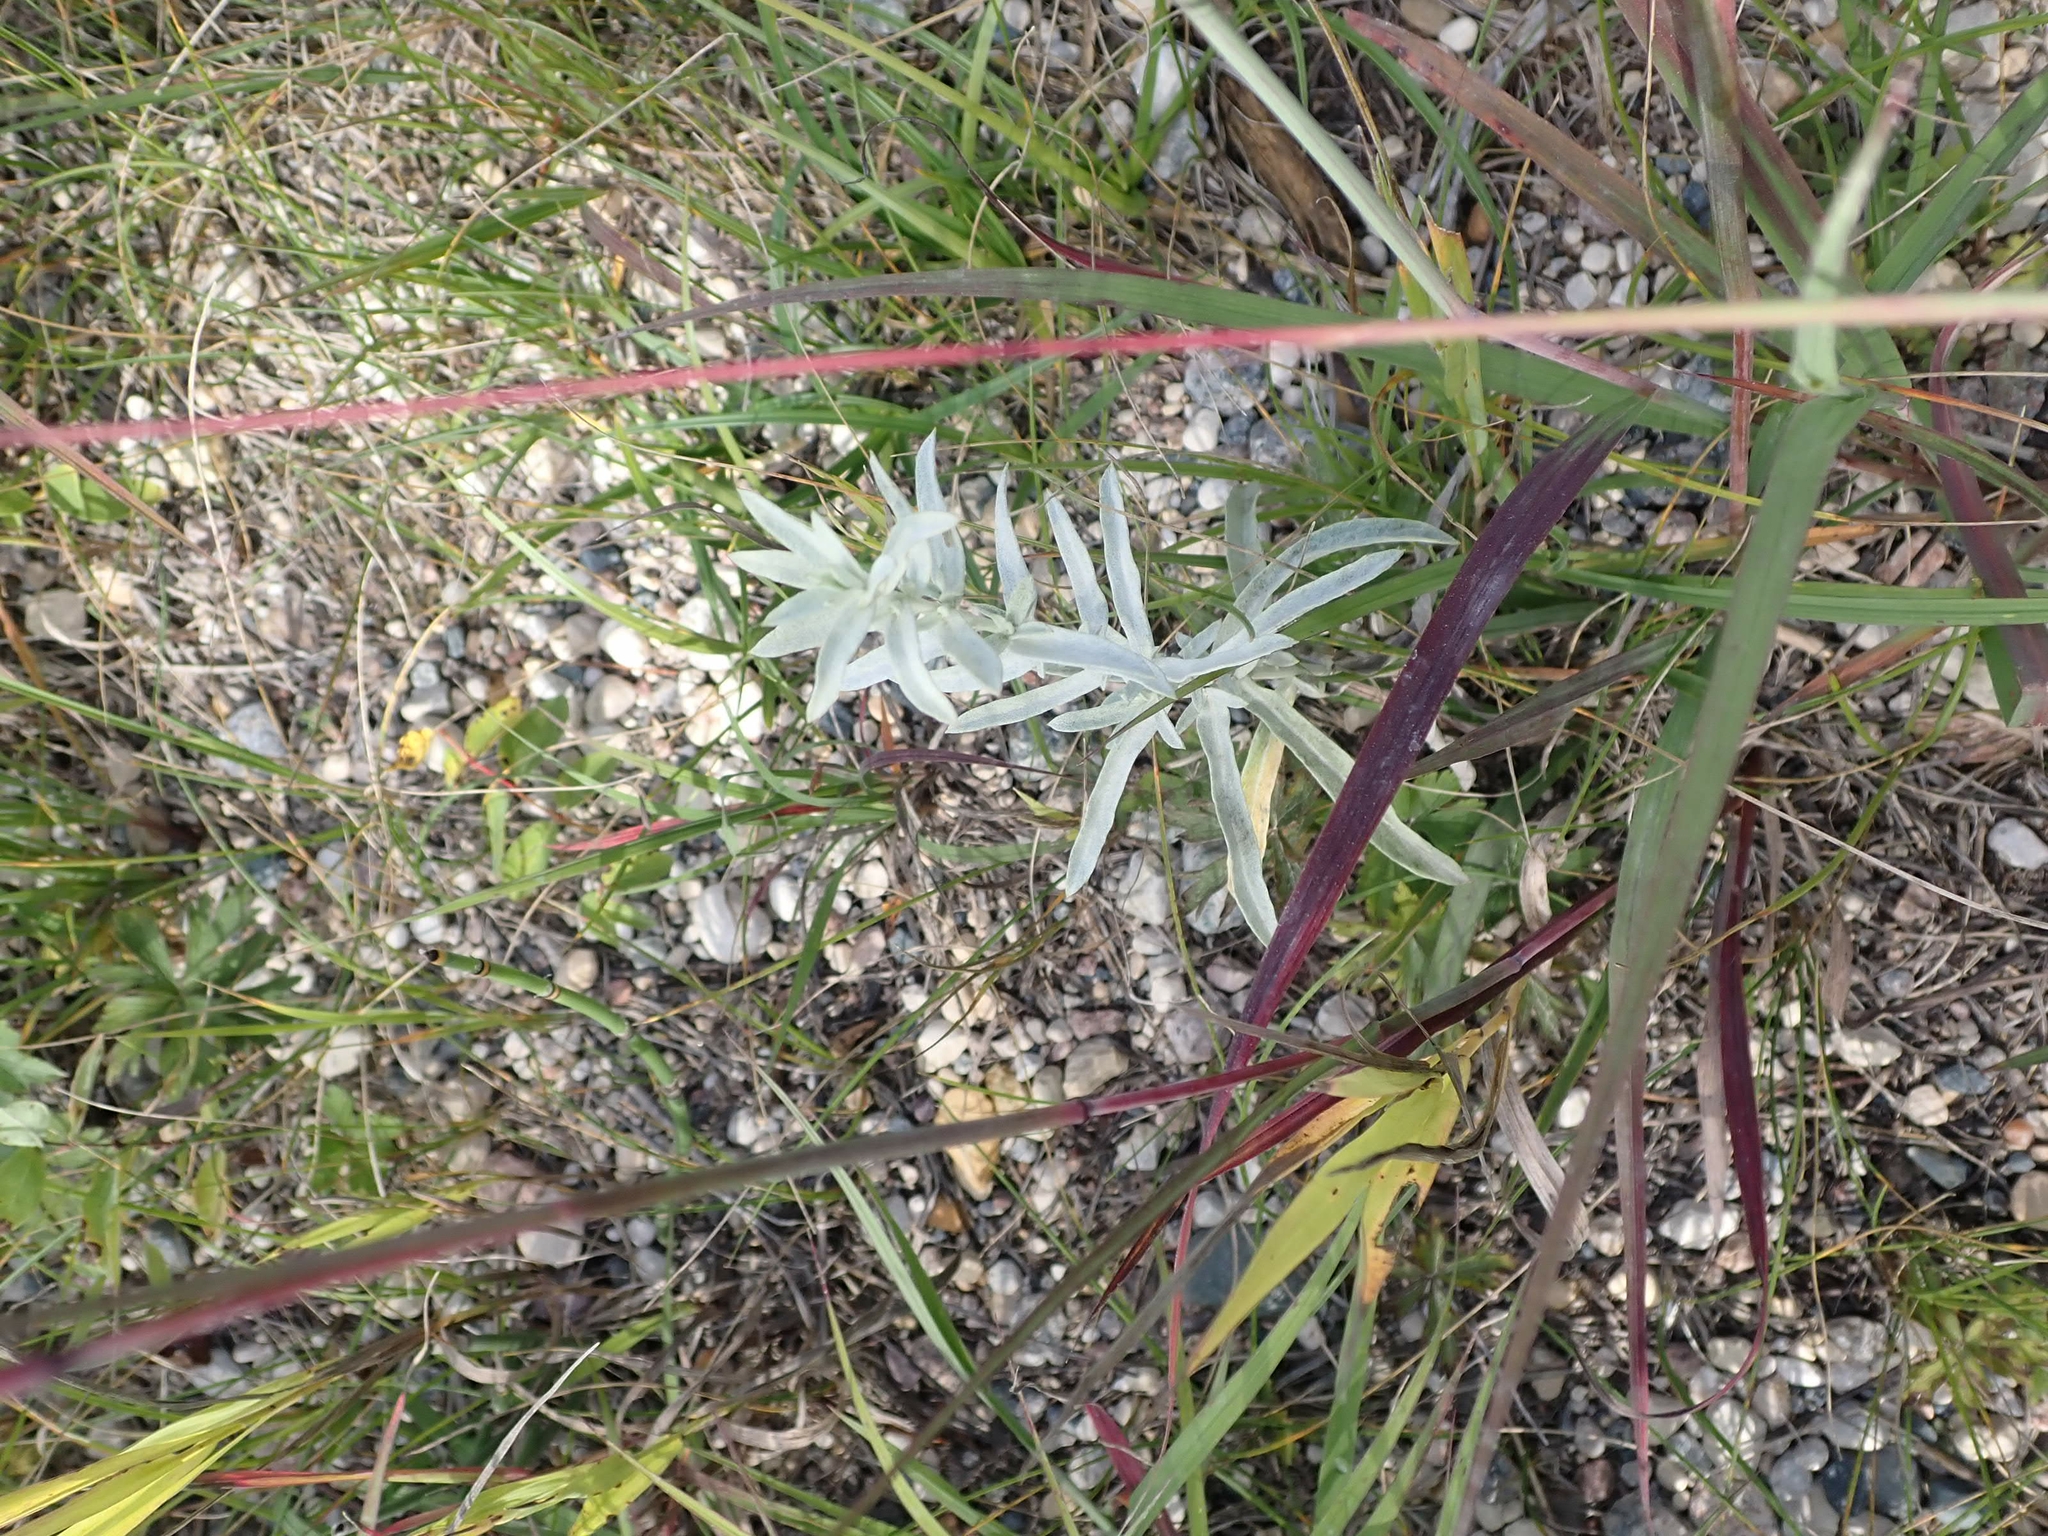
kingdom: Plantae
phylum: Tracheophyta
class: Magnoliopsida
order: Asterales
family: Asteraceae
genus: Artemisia
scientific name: Artemisia ludoviciana
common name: Western mugwort
